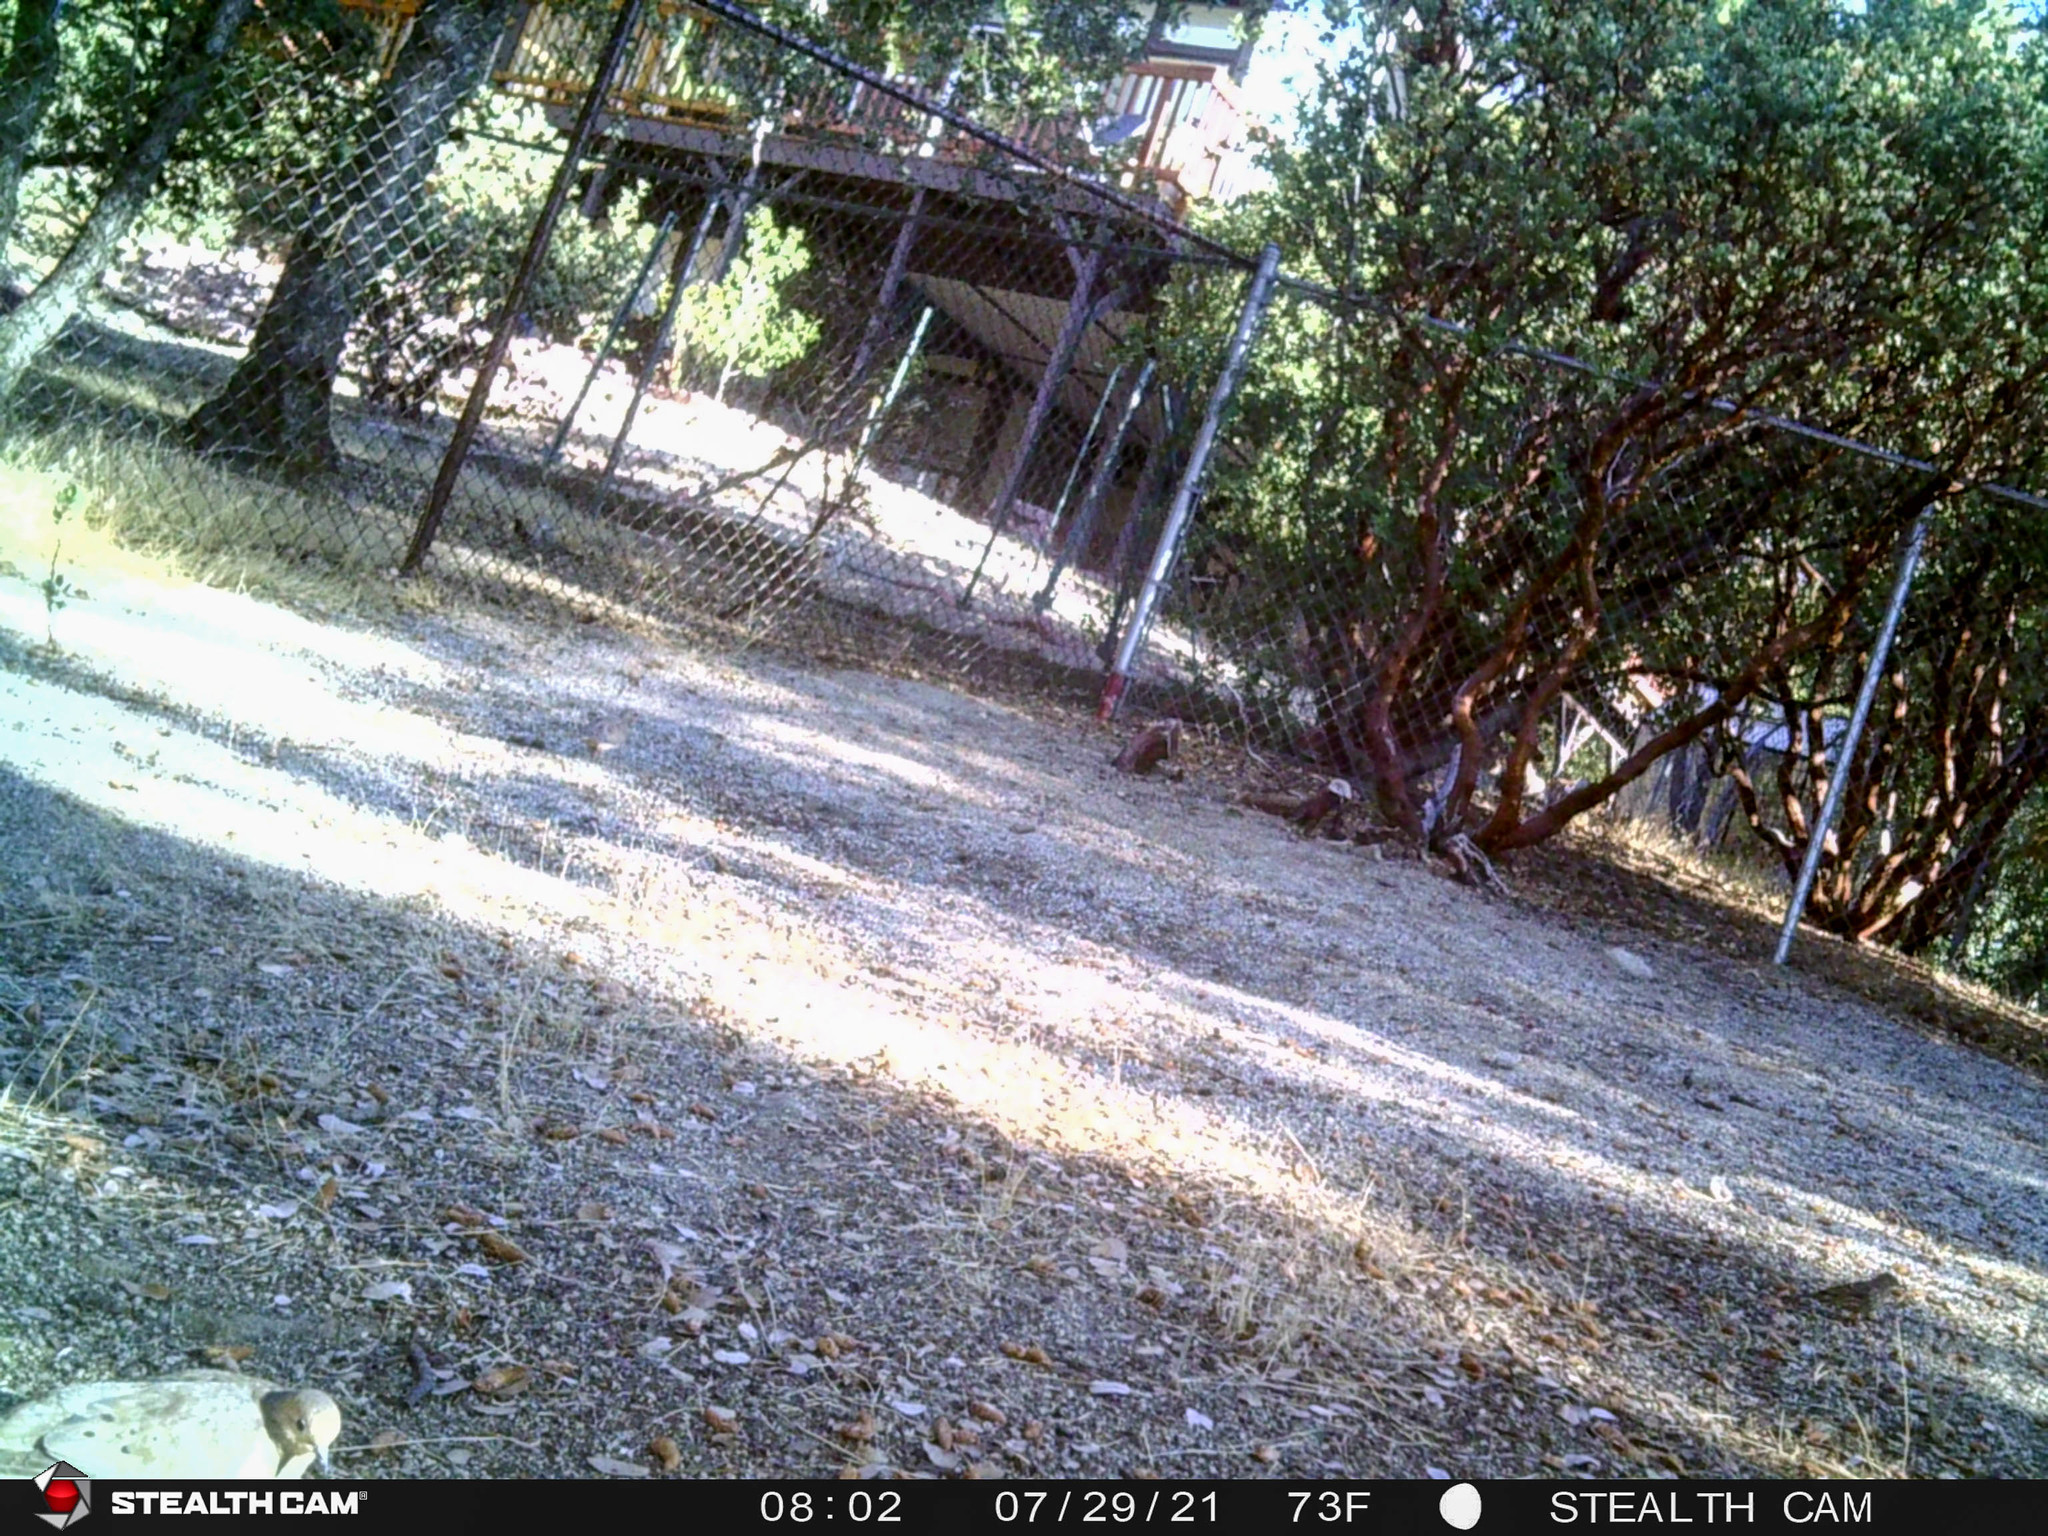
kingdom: Animalia
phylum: Chordata
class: Aves
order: Columbiformes
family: Columbidae
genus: Zenaida
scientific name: Zenaida macroura
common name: Mourning dove
